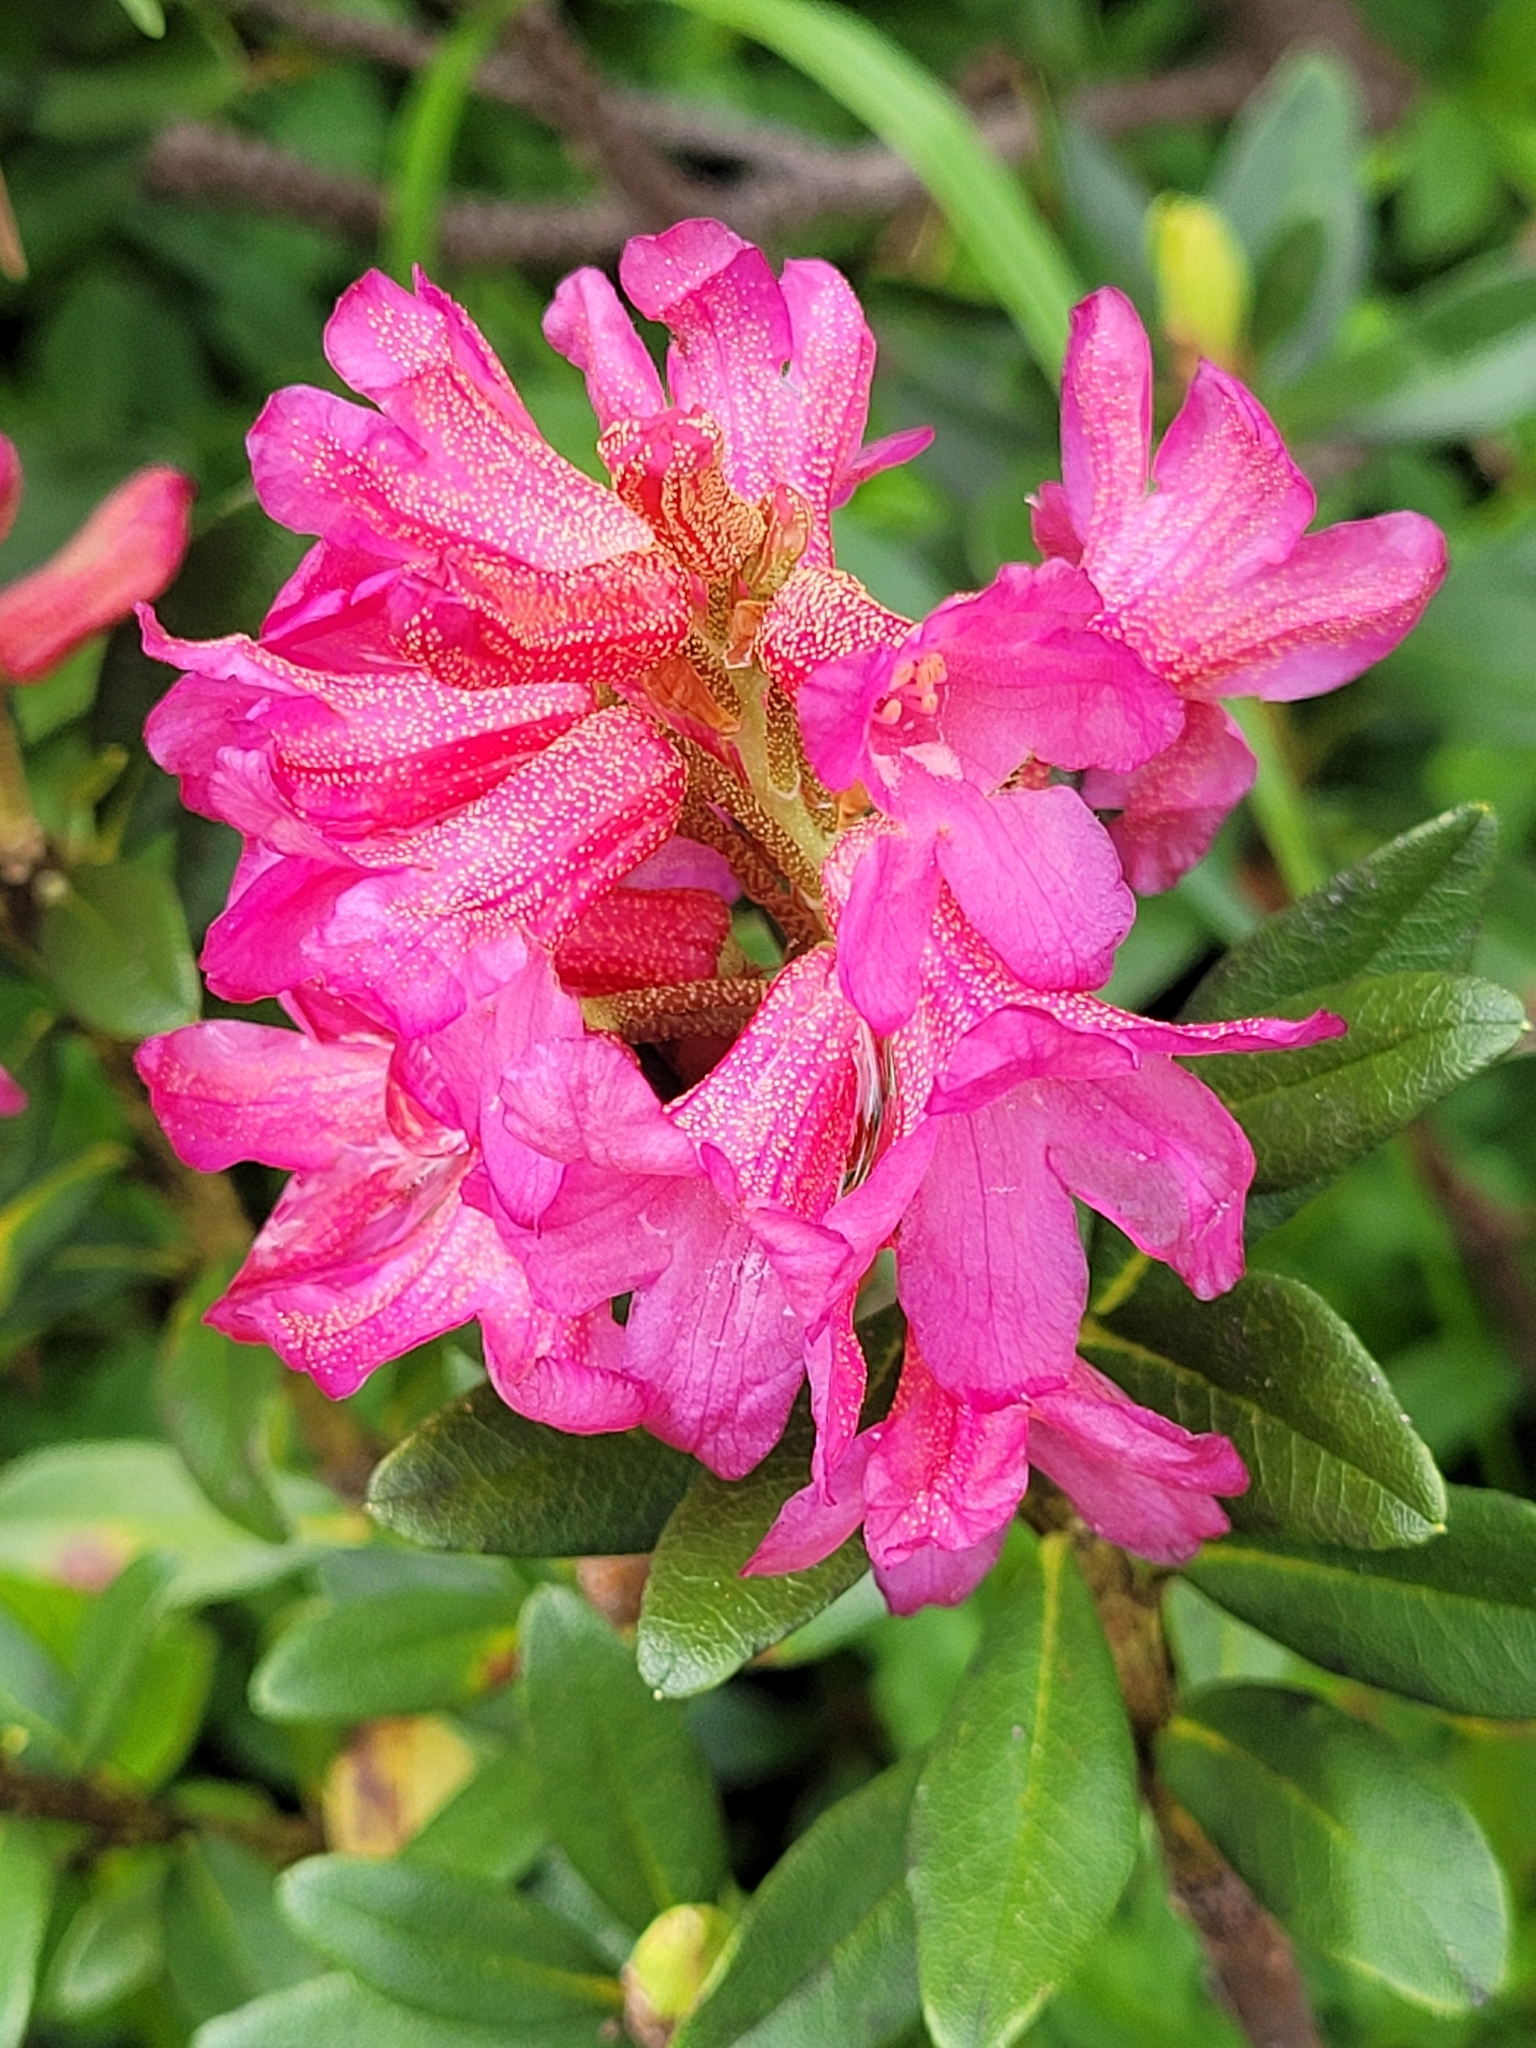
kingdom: Plantae
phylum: Tracheophyta
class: Magnoliopsida
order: Ericales
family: Ericaceae
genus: Rhododendron
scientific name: Rhododendron ferrugineum
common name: Alpenrose
